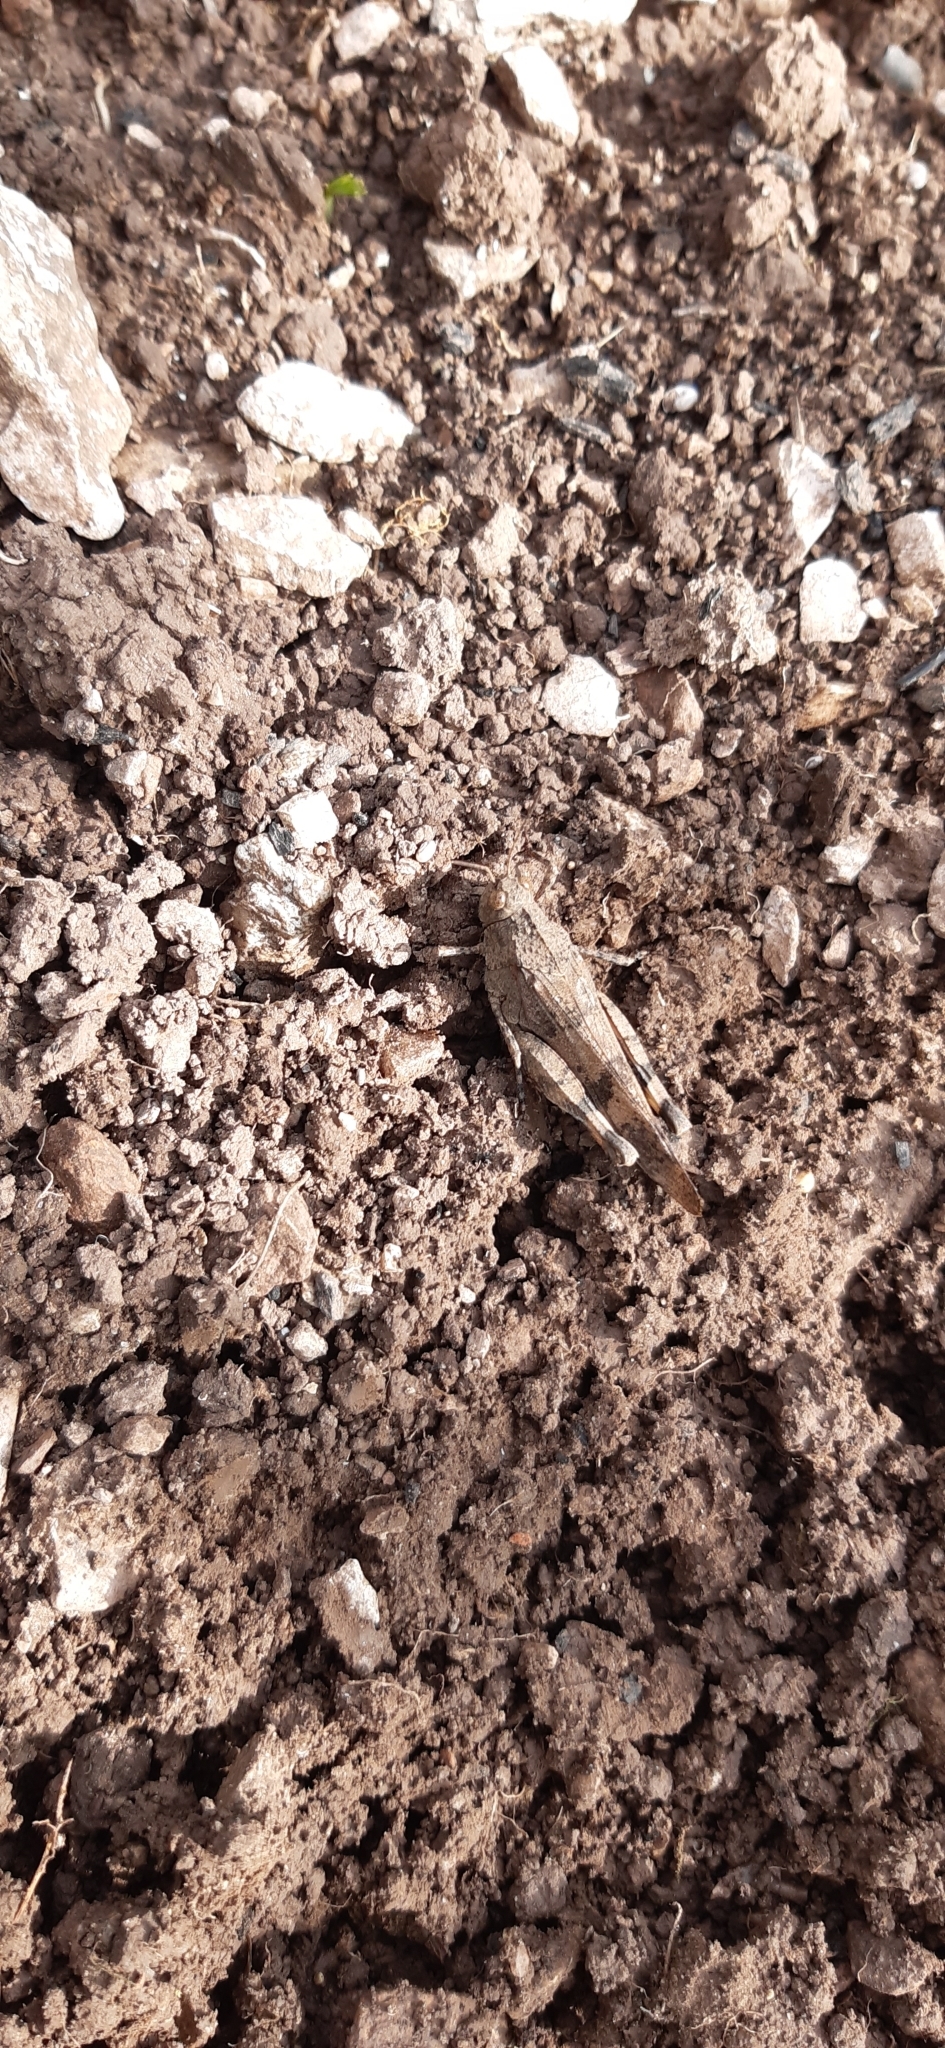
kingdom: Animalia
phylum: Arthropoda
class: Insecta
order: Orthoptera
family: Acrididae
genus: Oedipoda
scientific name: Oedipoda caerulescens
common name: Blue-winged grasshopper
